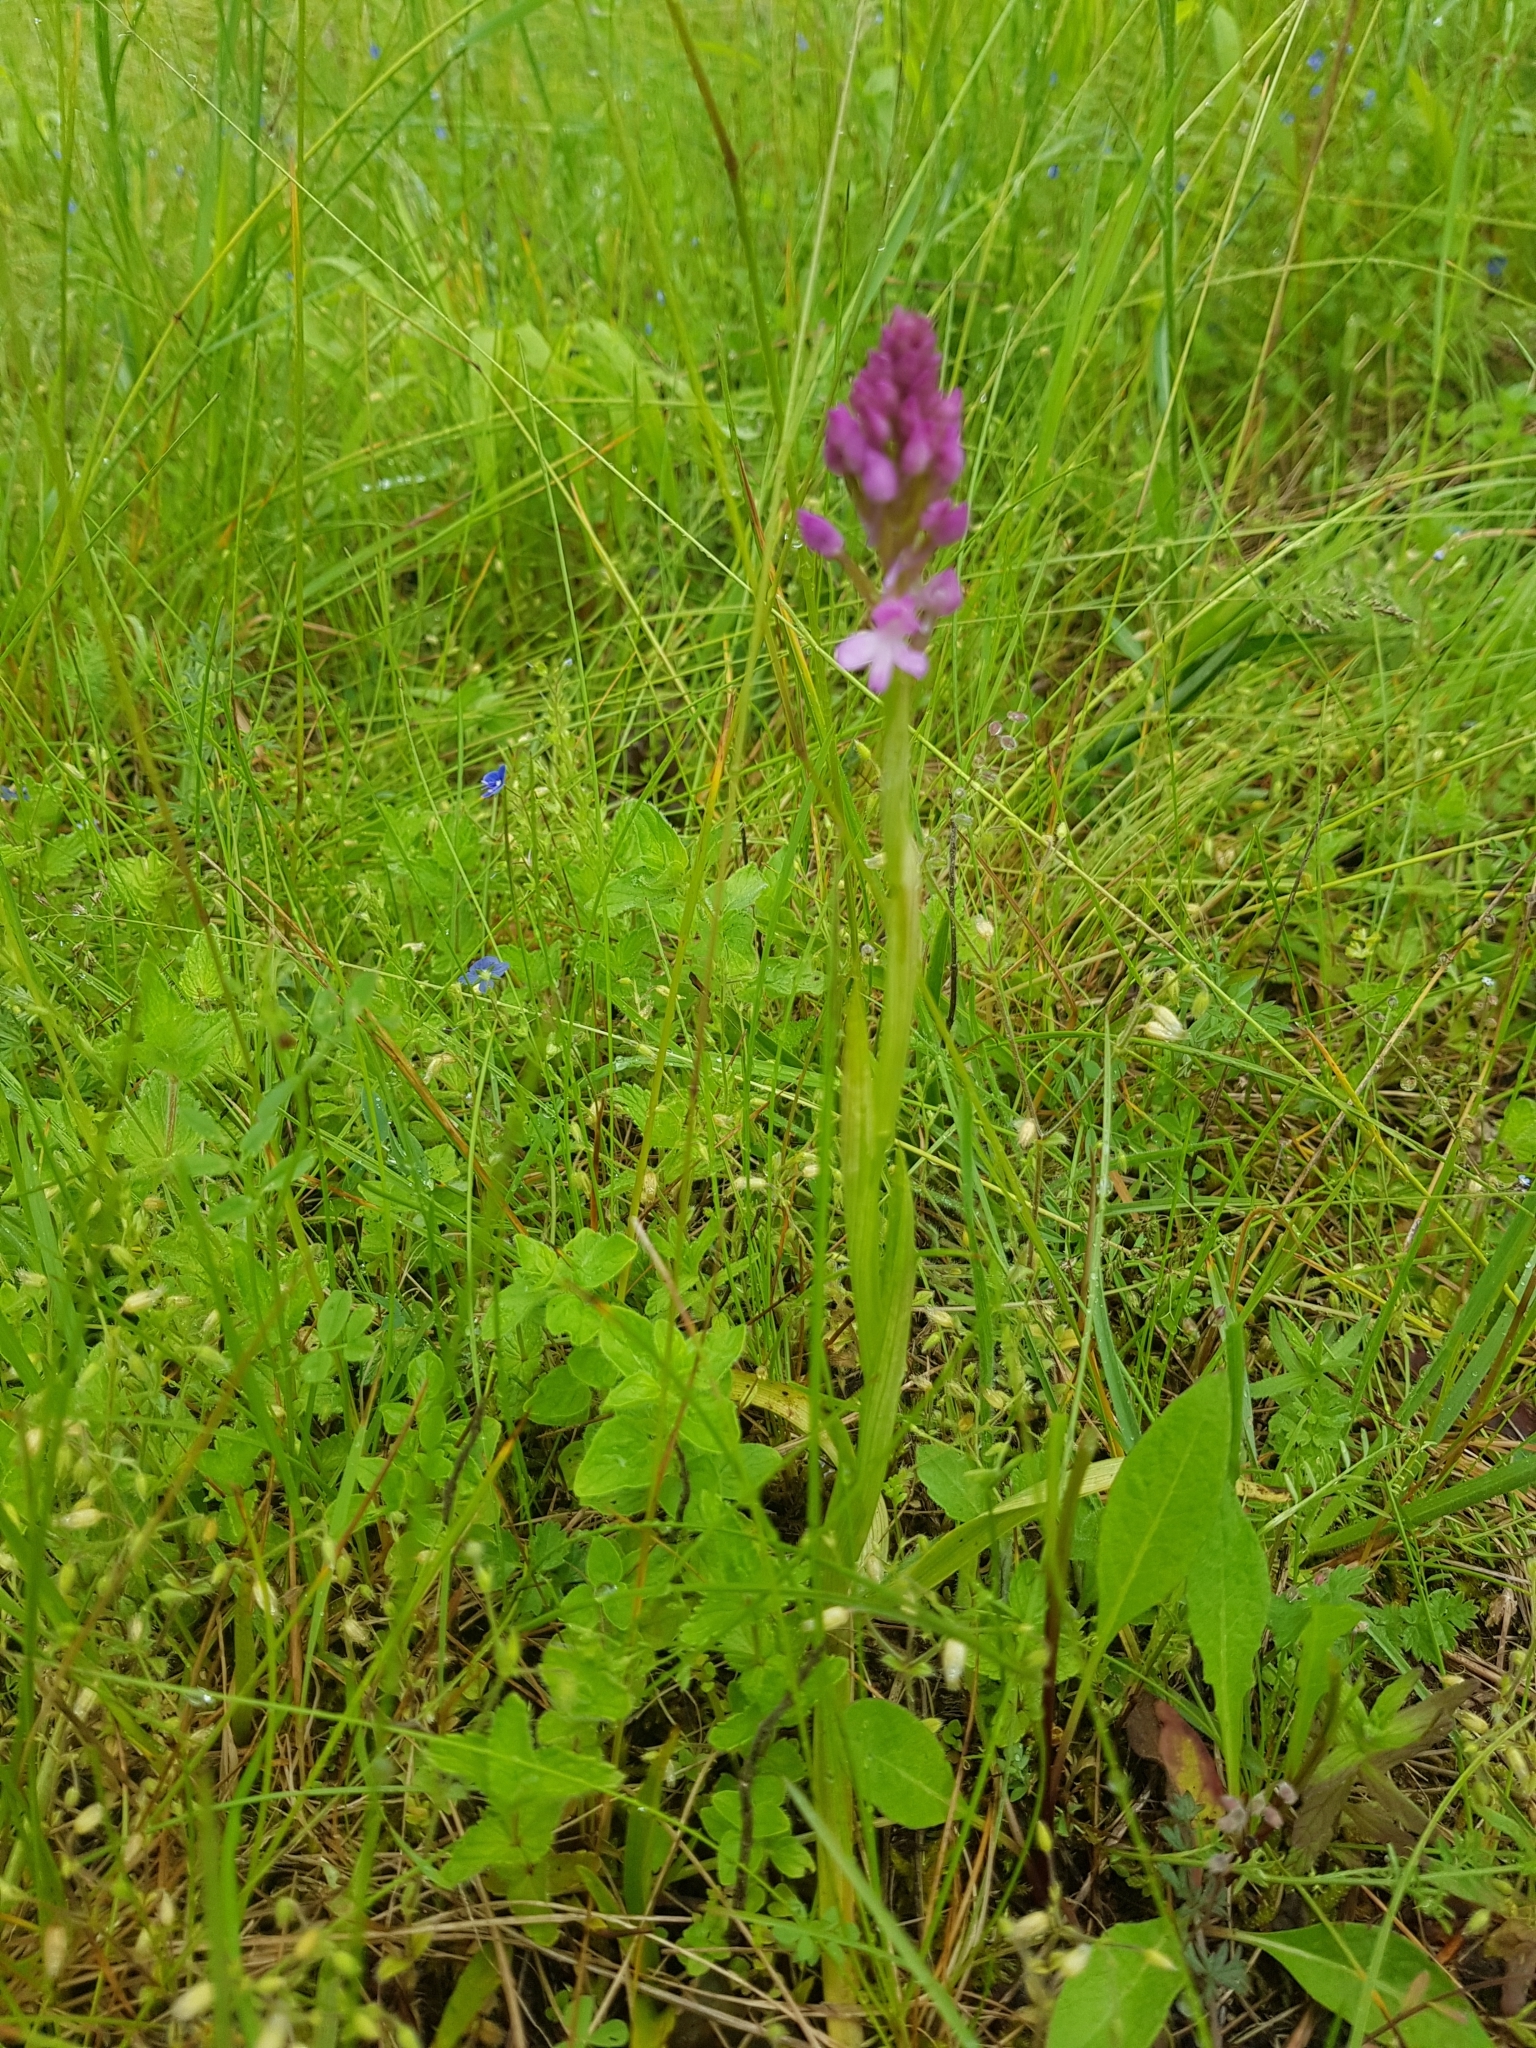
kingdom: Plantae
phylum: Tracheophyta
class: Liliopsida
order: Asparagales
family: Orchidaceae
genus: Anacamptis
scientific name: Anacamptis pyramidalis
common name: Pyramidal orchid
